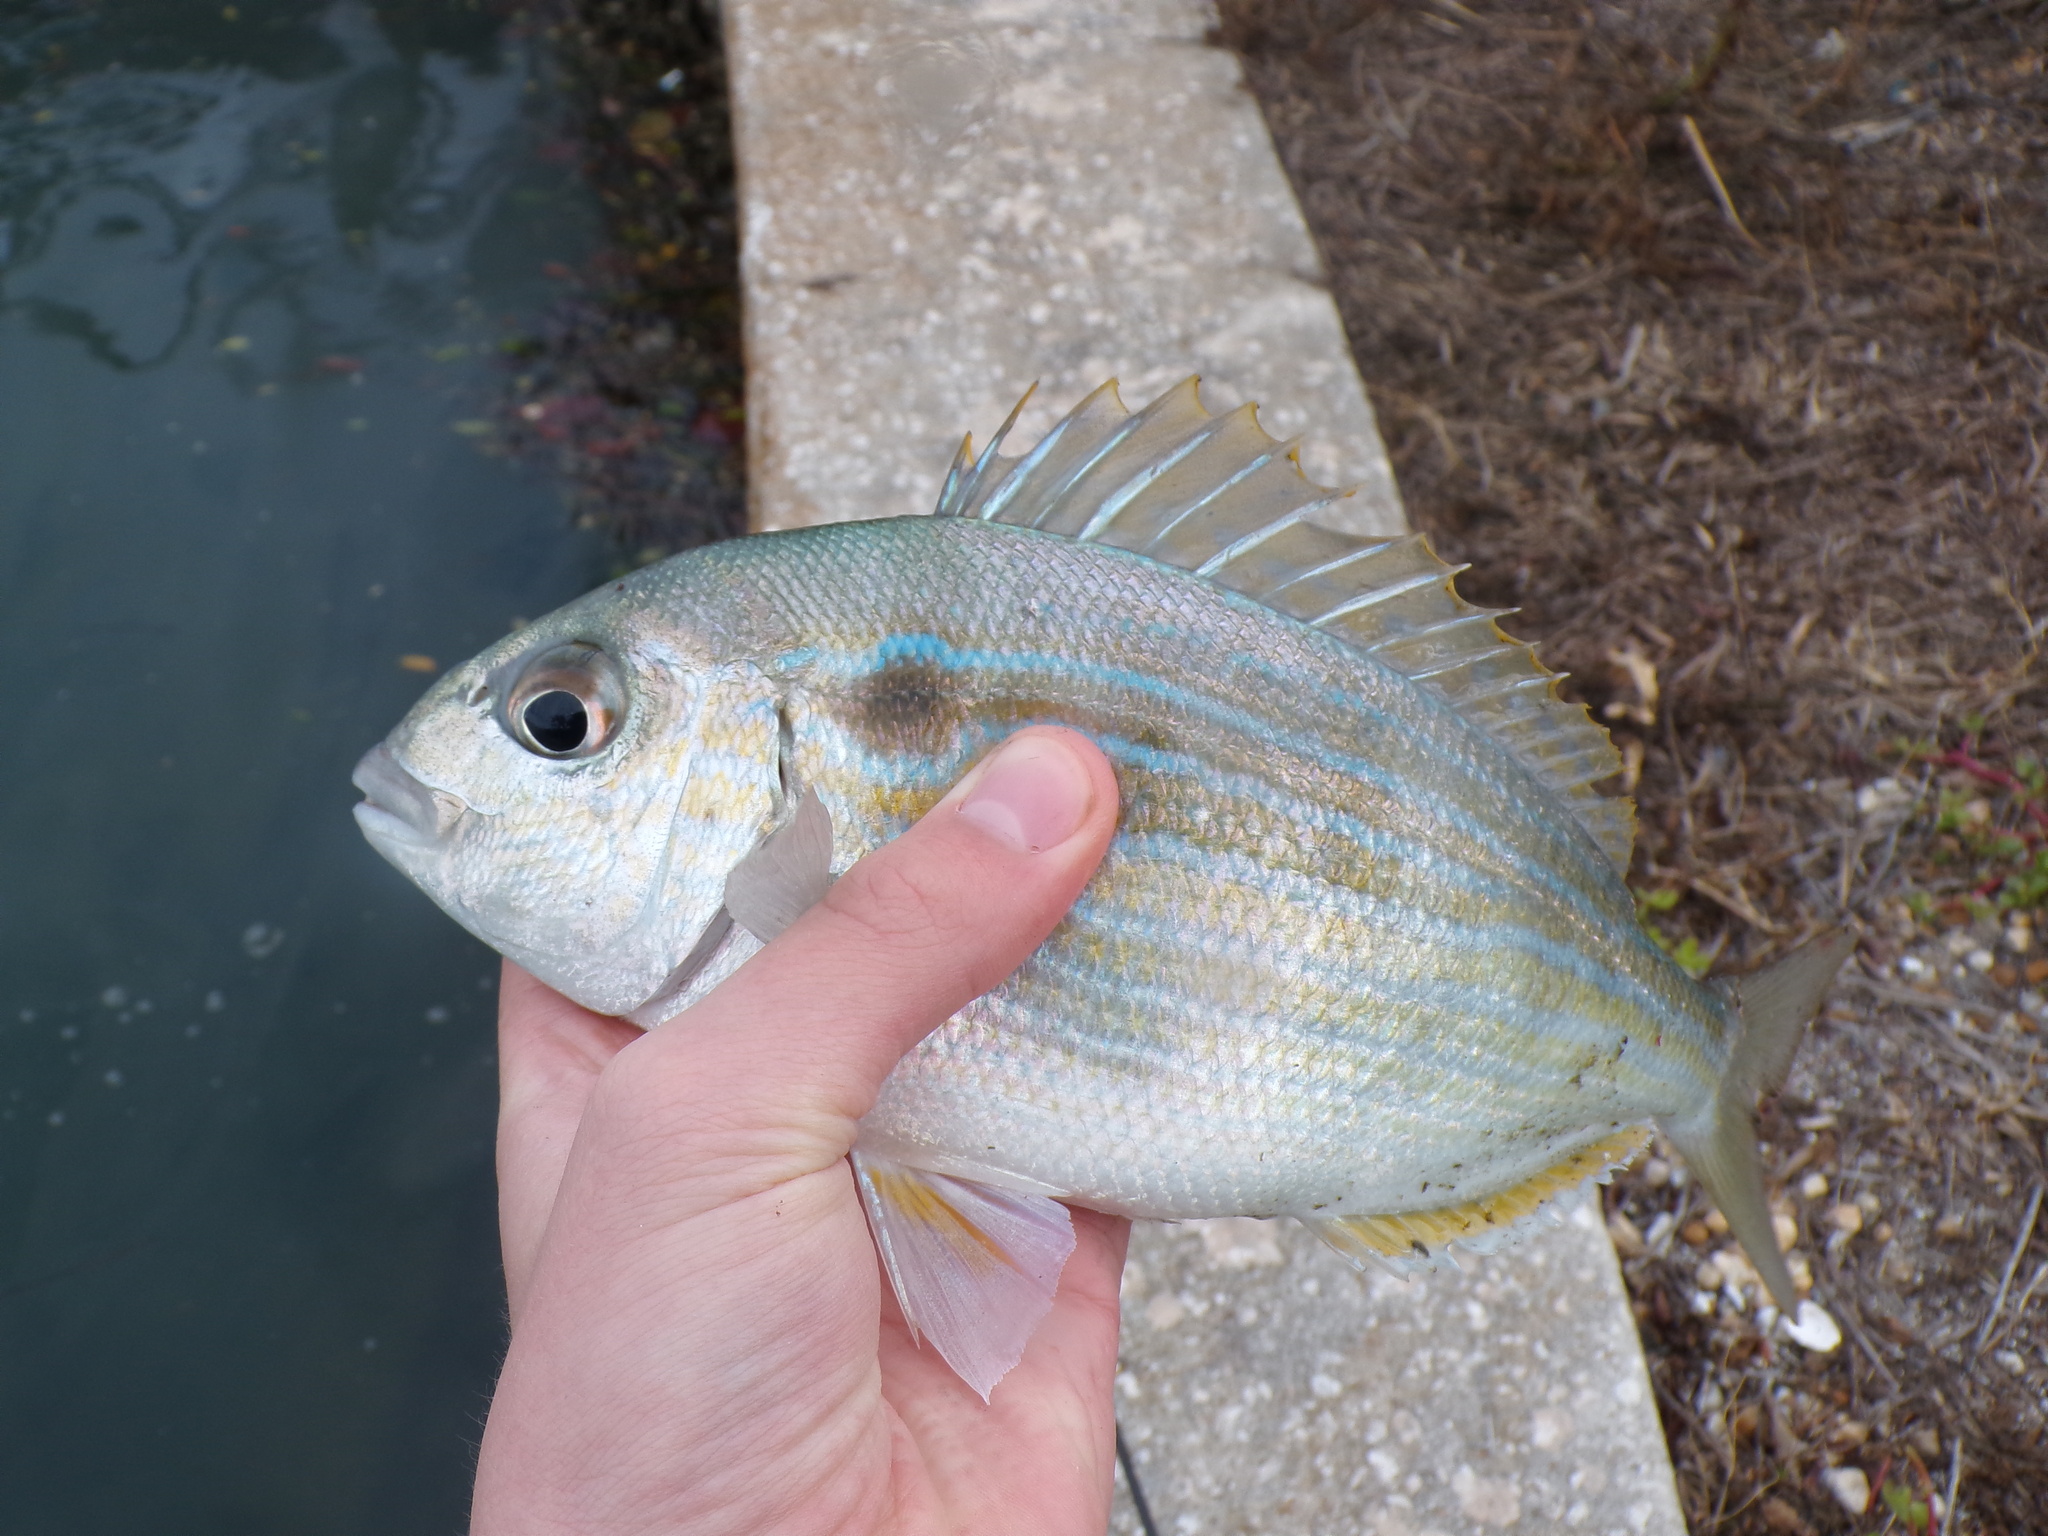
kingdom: Animalia
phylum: Chordata
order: Perciformes
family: Sparidae
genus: Lagodon
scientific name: Lagodon rhomboides
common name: Pinfish
